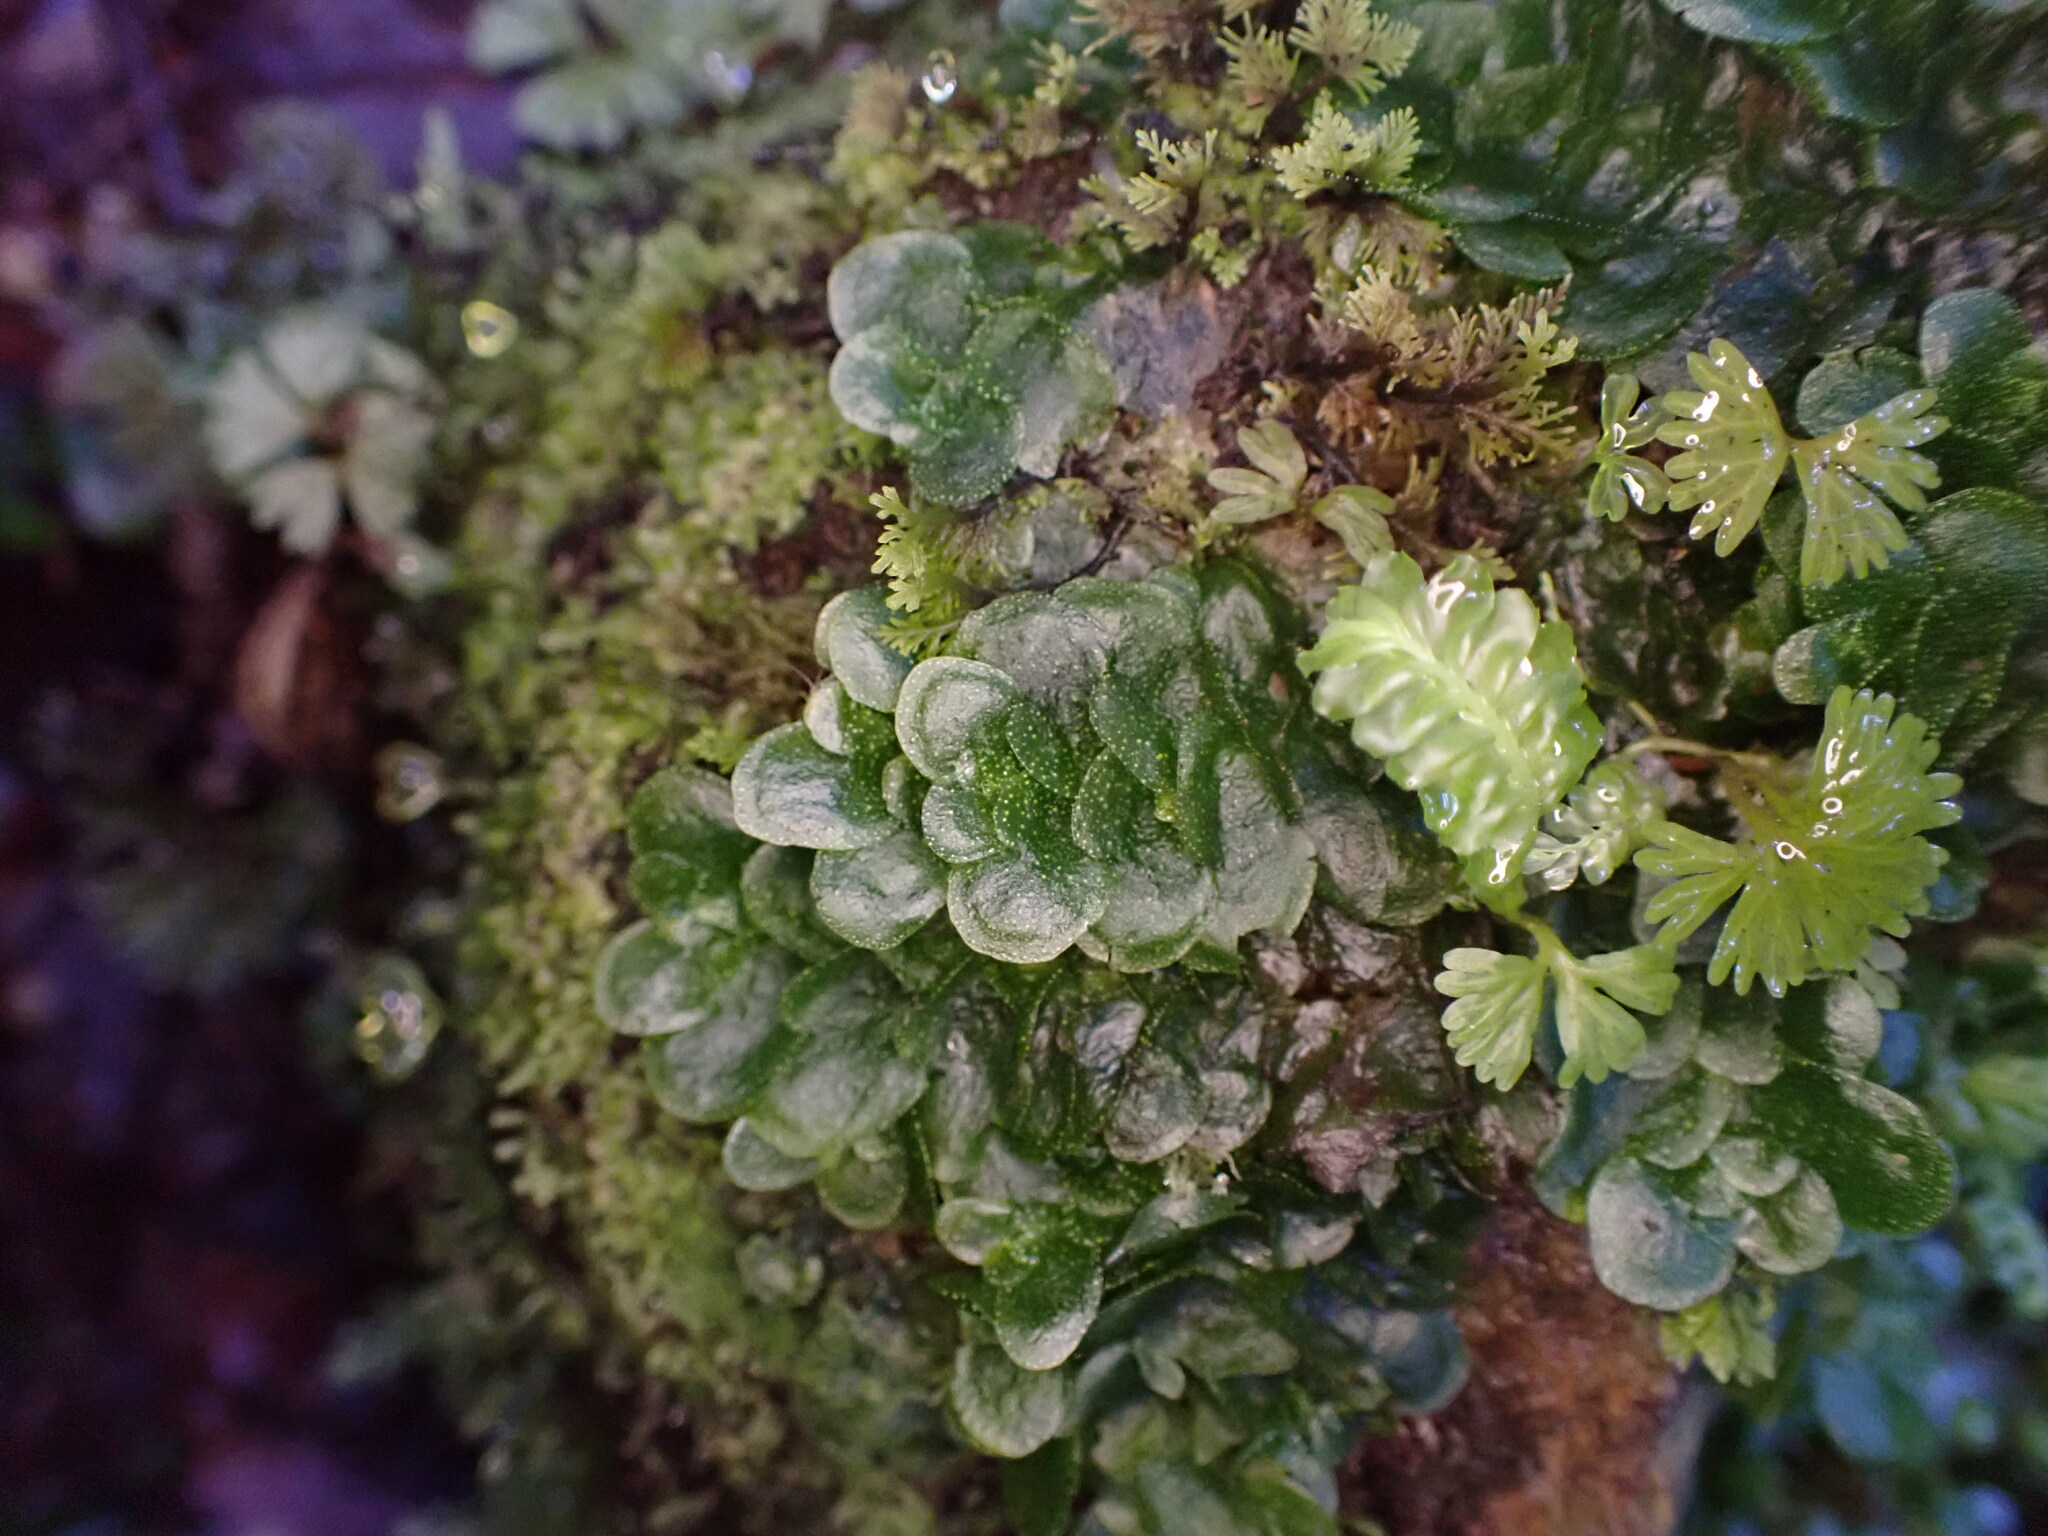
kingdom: Plantae
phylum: Marchantiophyta
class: Haplomitriopsida
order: Treubiales
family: Treubiaceae
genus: Treubia
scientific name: Treubia lacunosa
